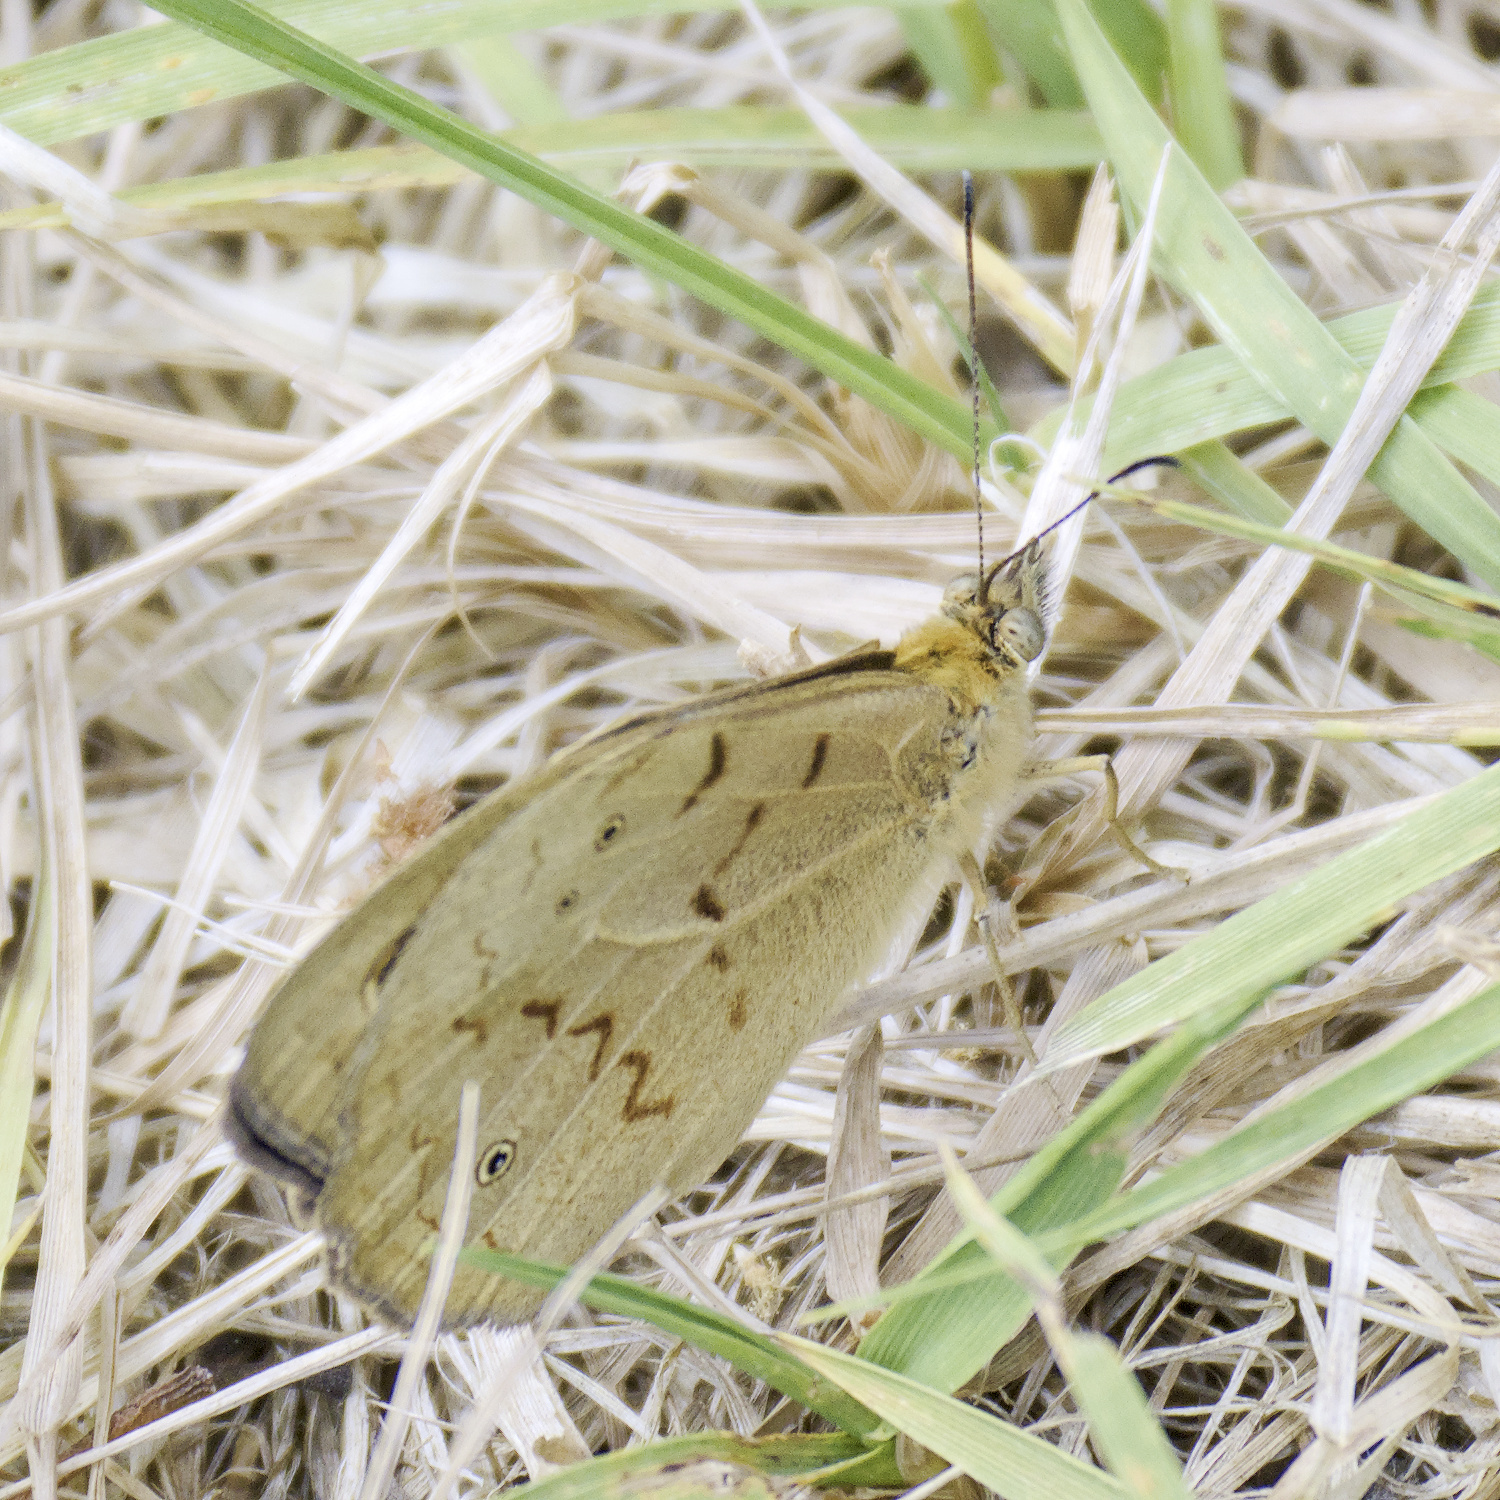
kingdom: Animalia
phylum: Arthropoda
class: Insecta
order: Lepidoptera
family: Nymphalidae
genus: Heteronympha
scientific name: Heteronympha merope
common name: Common brown
